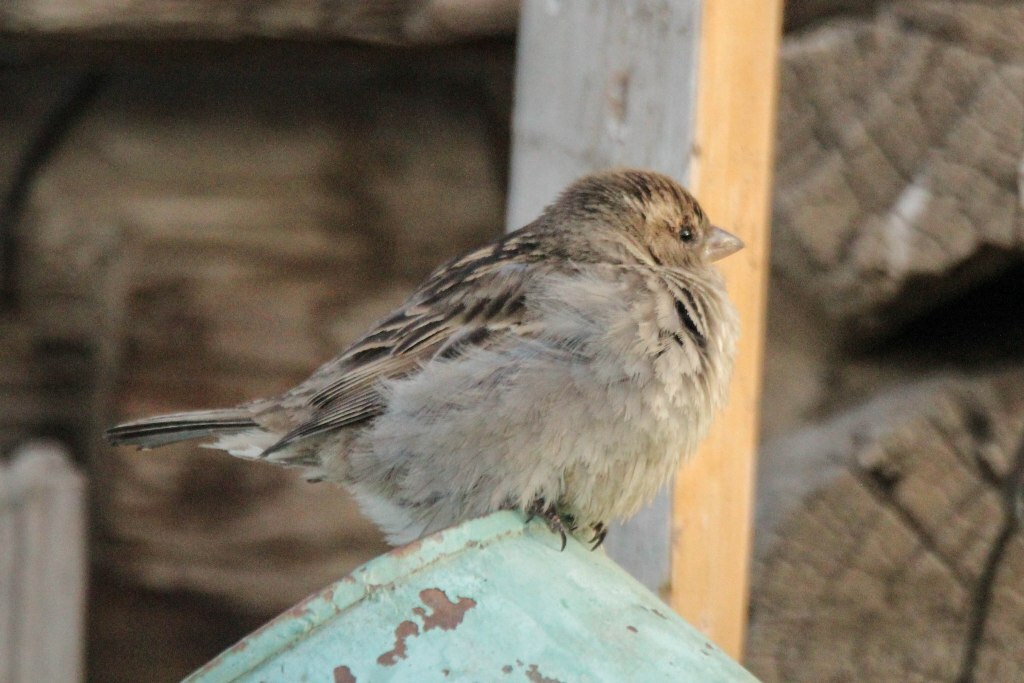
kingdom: Animalia
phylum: Chordata
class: Aves
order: Passeriformes
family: Passeridae
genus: Passer
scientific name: Passer domesticus
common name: House sparrow
